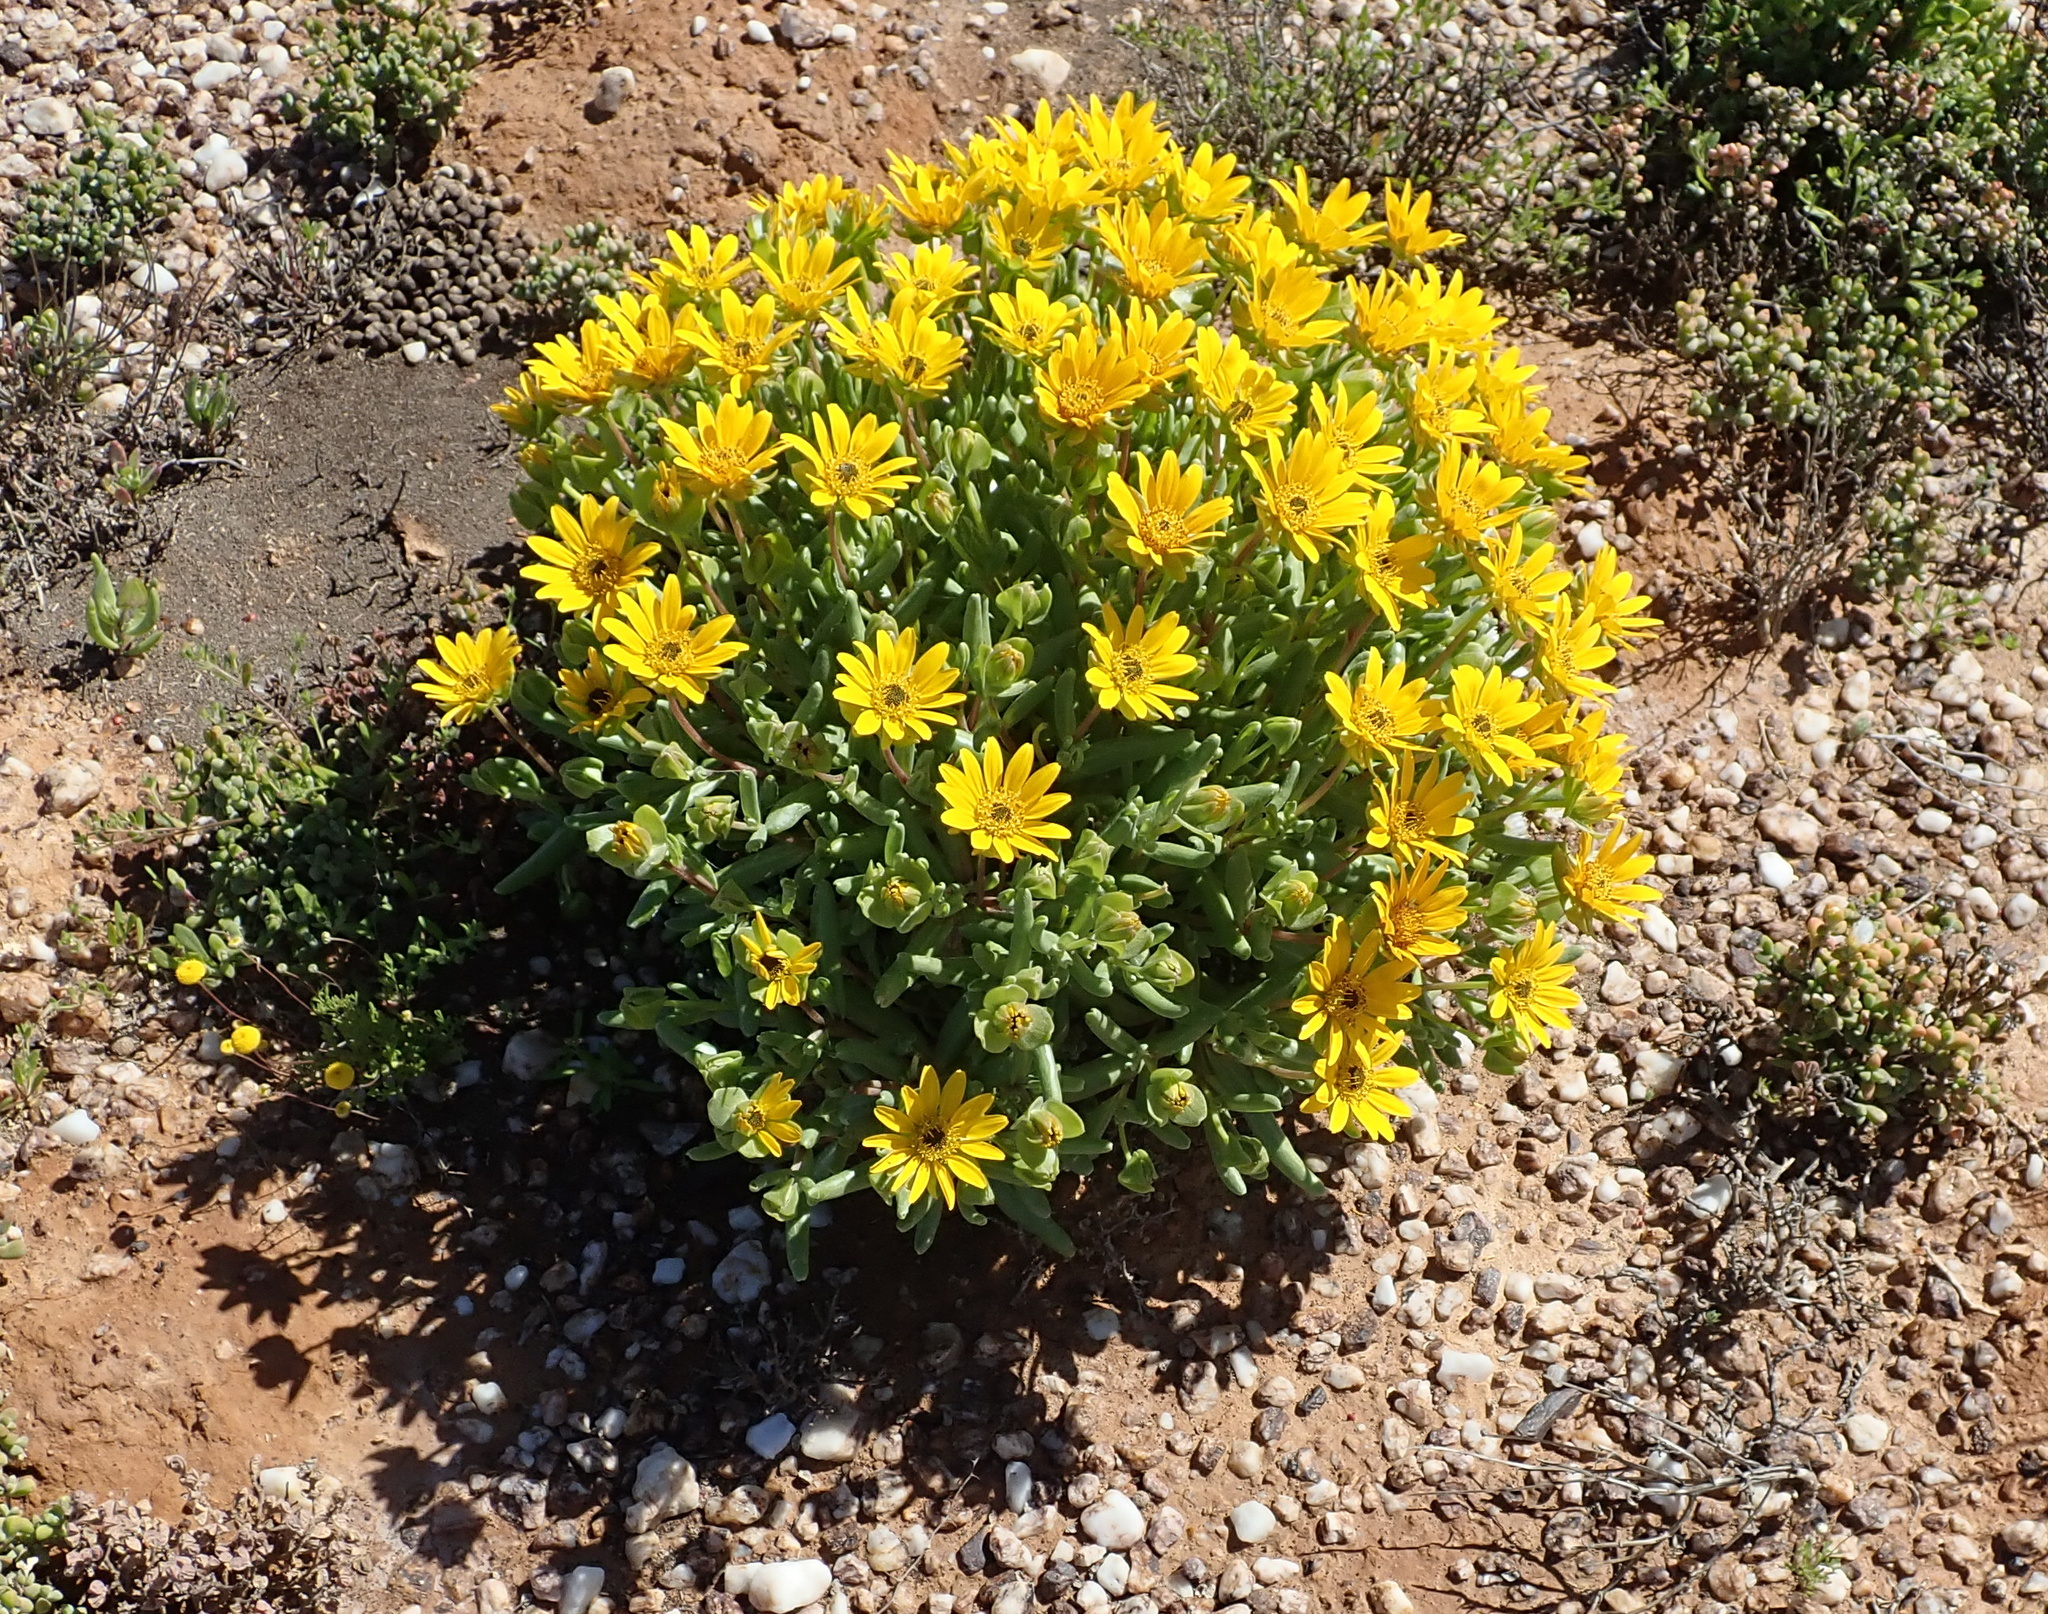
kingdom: Plantae
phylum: Tracheophyta
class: Magnoliopsida
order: Asterales
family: Asteraceae
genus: Didelta
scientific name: Didelta carnosa
